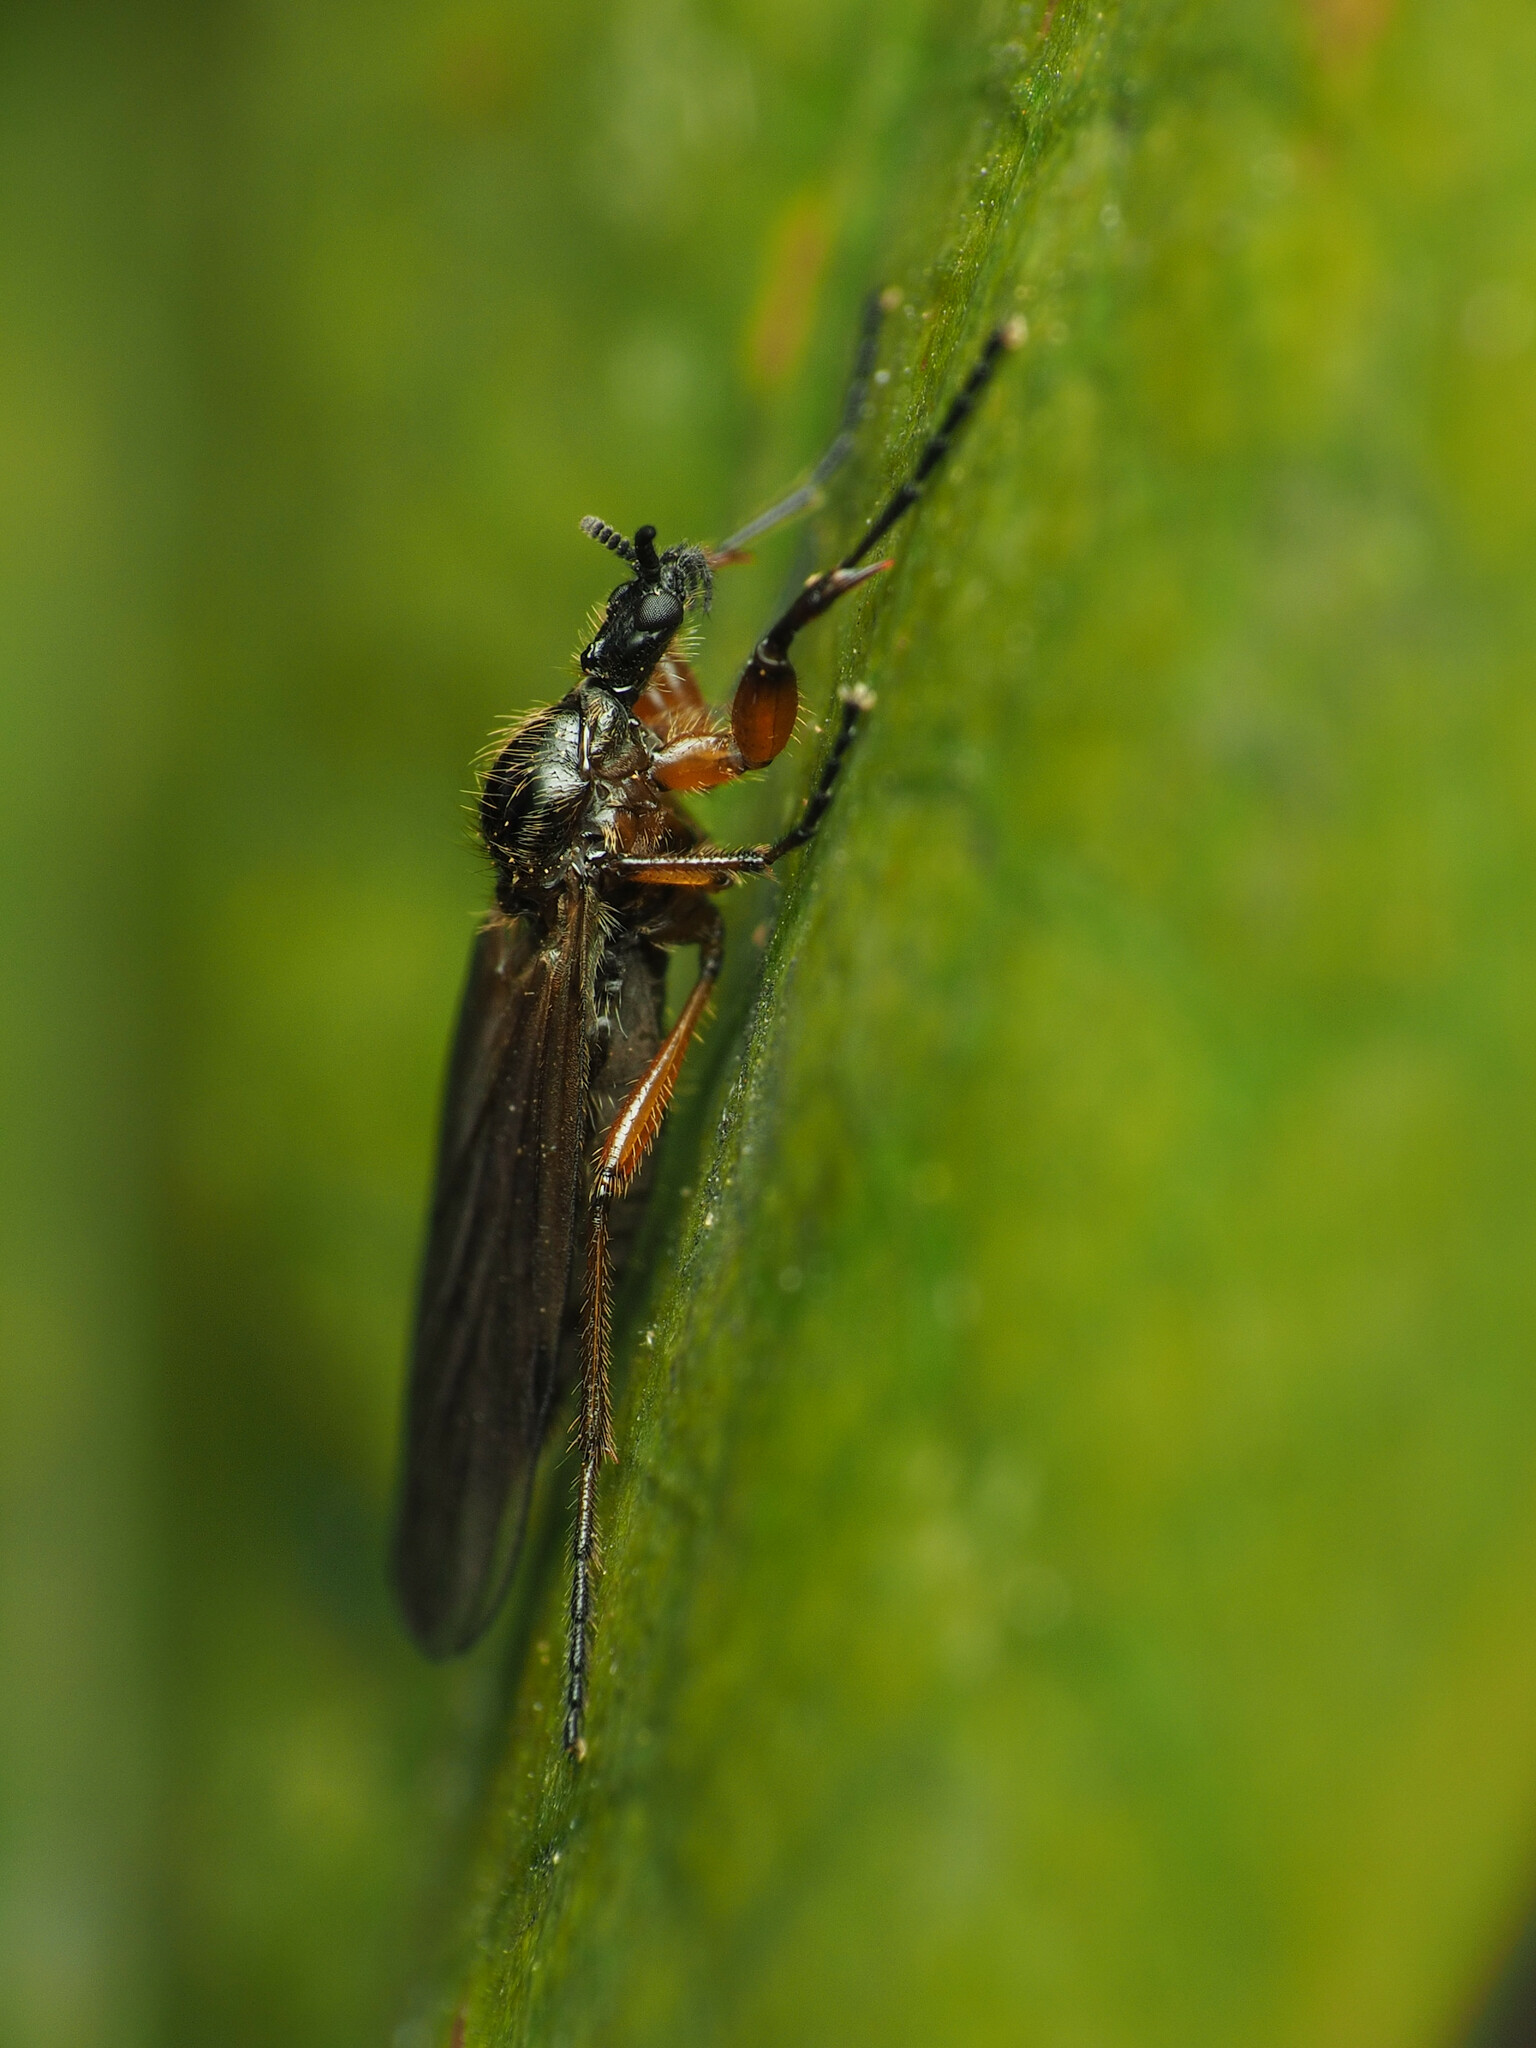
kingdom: Animalia
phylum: Arthropoda
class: Insecta
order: Diptera
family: Bibionidae
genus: Bibio
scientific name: Bibio slossonae
